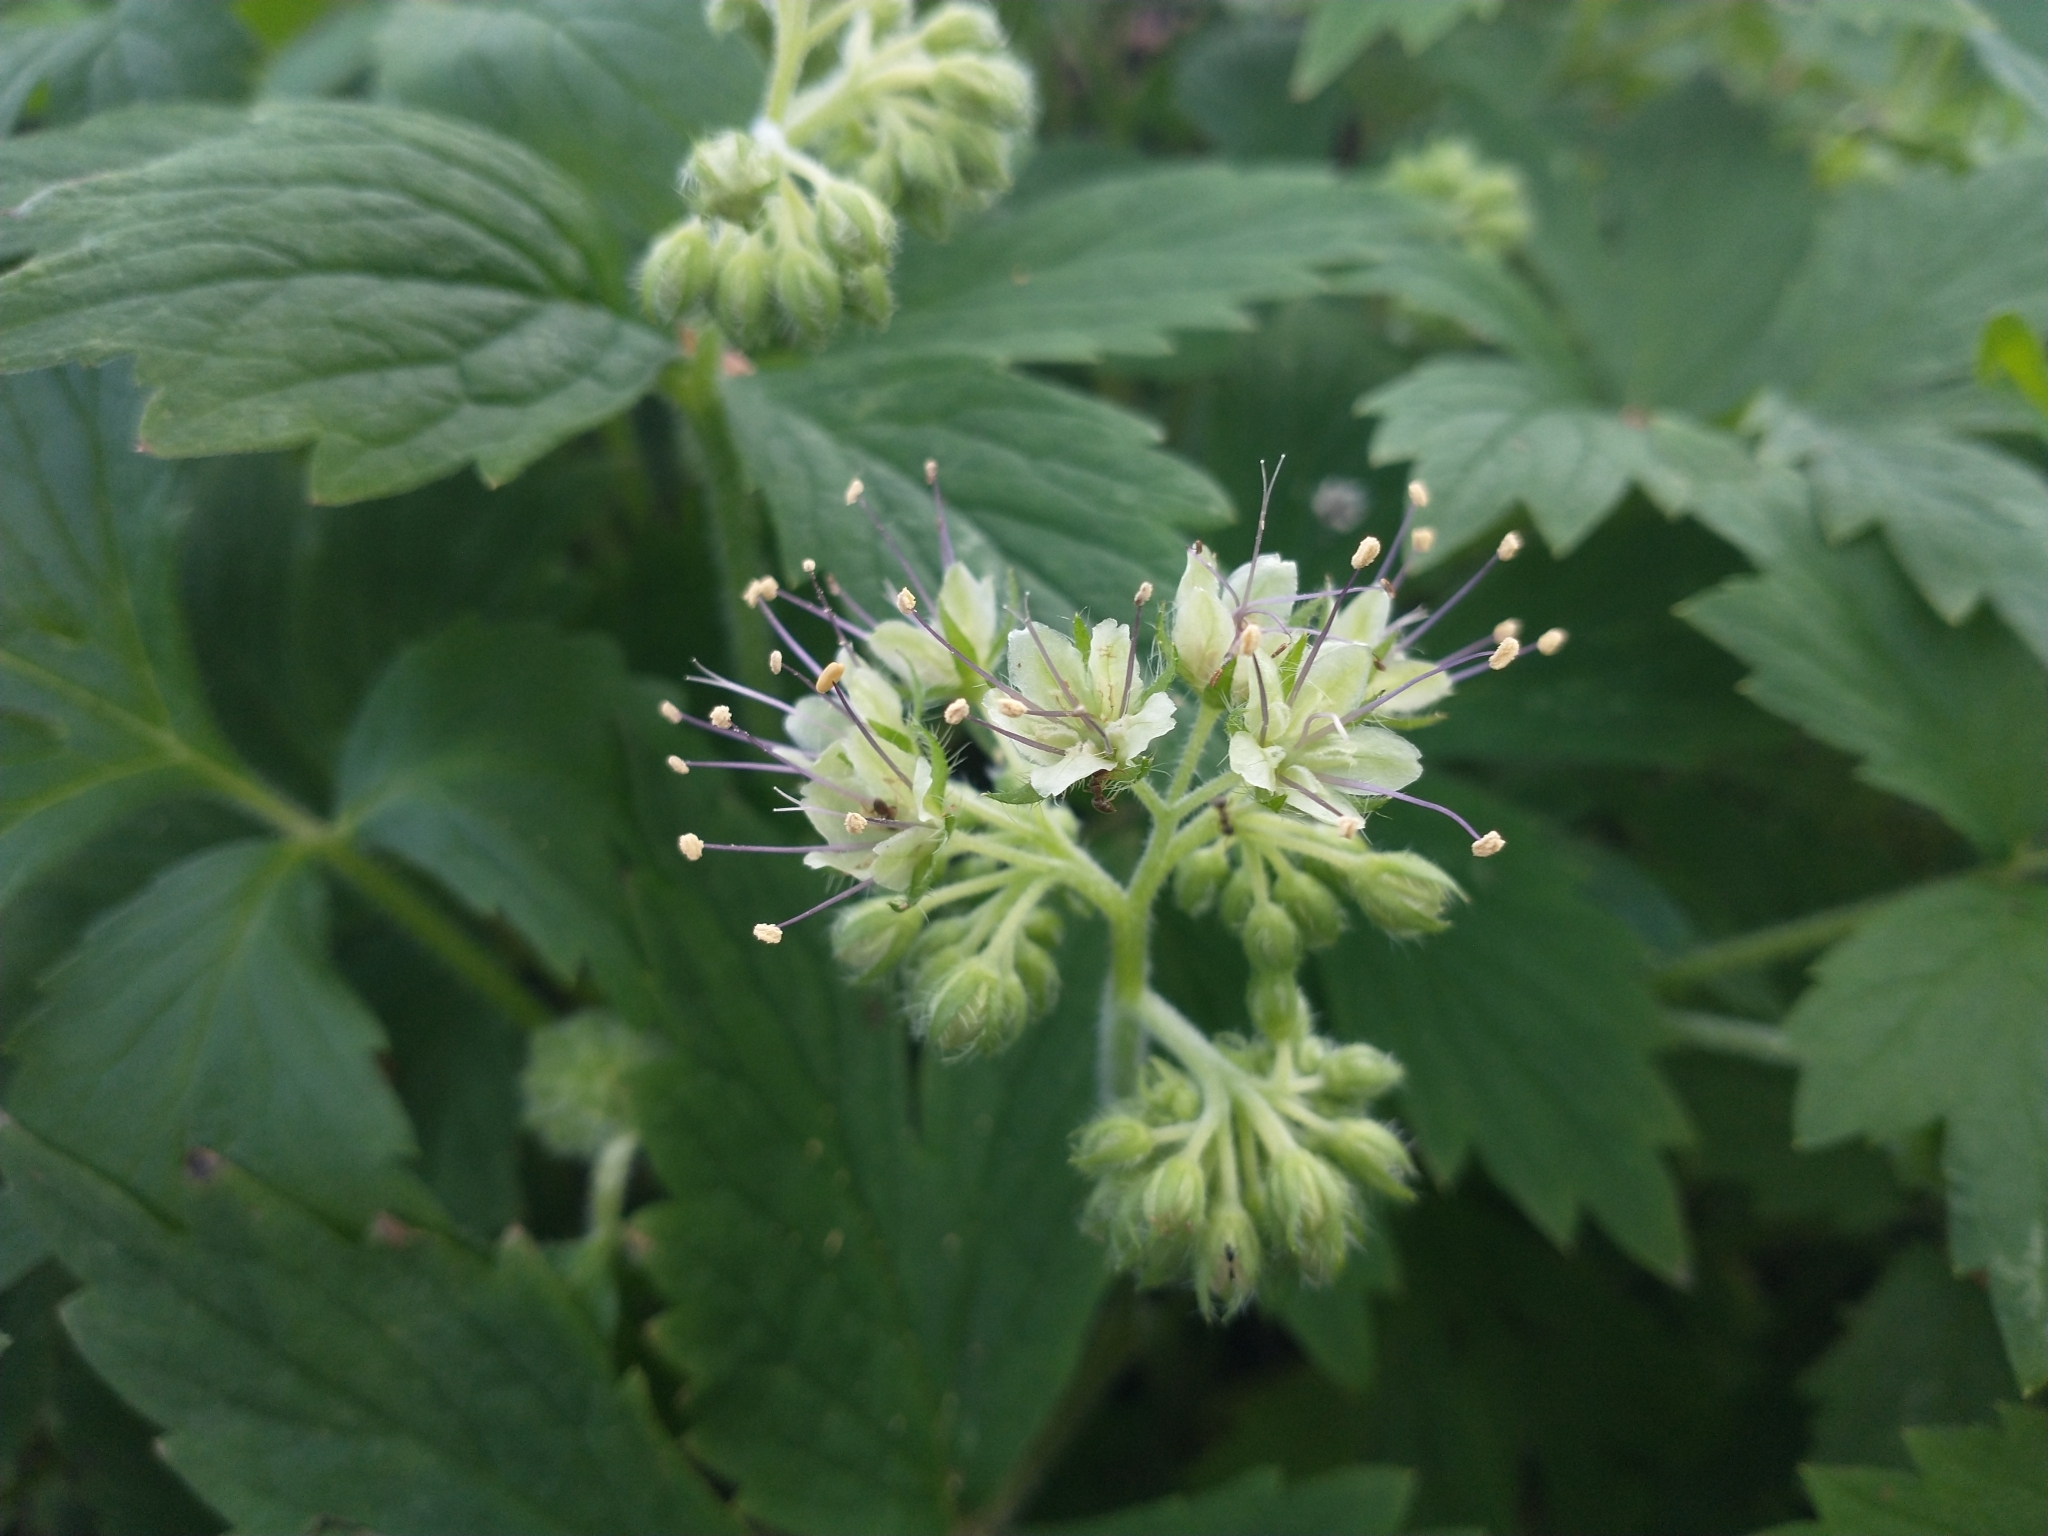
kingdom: Plantae
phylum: Tracheophyta
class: Magnoliopsida
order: Boraginales
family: Hydrophyllaceae
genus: Hydrophyllum
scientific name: Hydrophyllum tenuipes
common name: Pacific waterleaf
